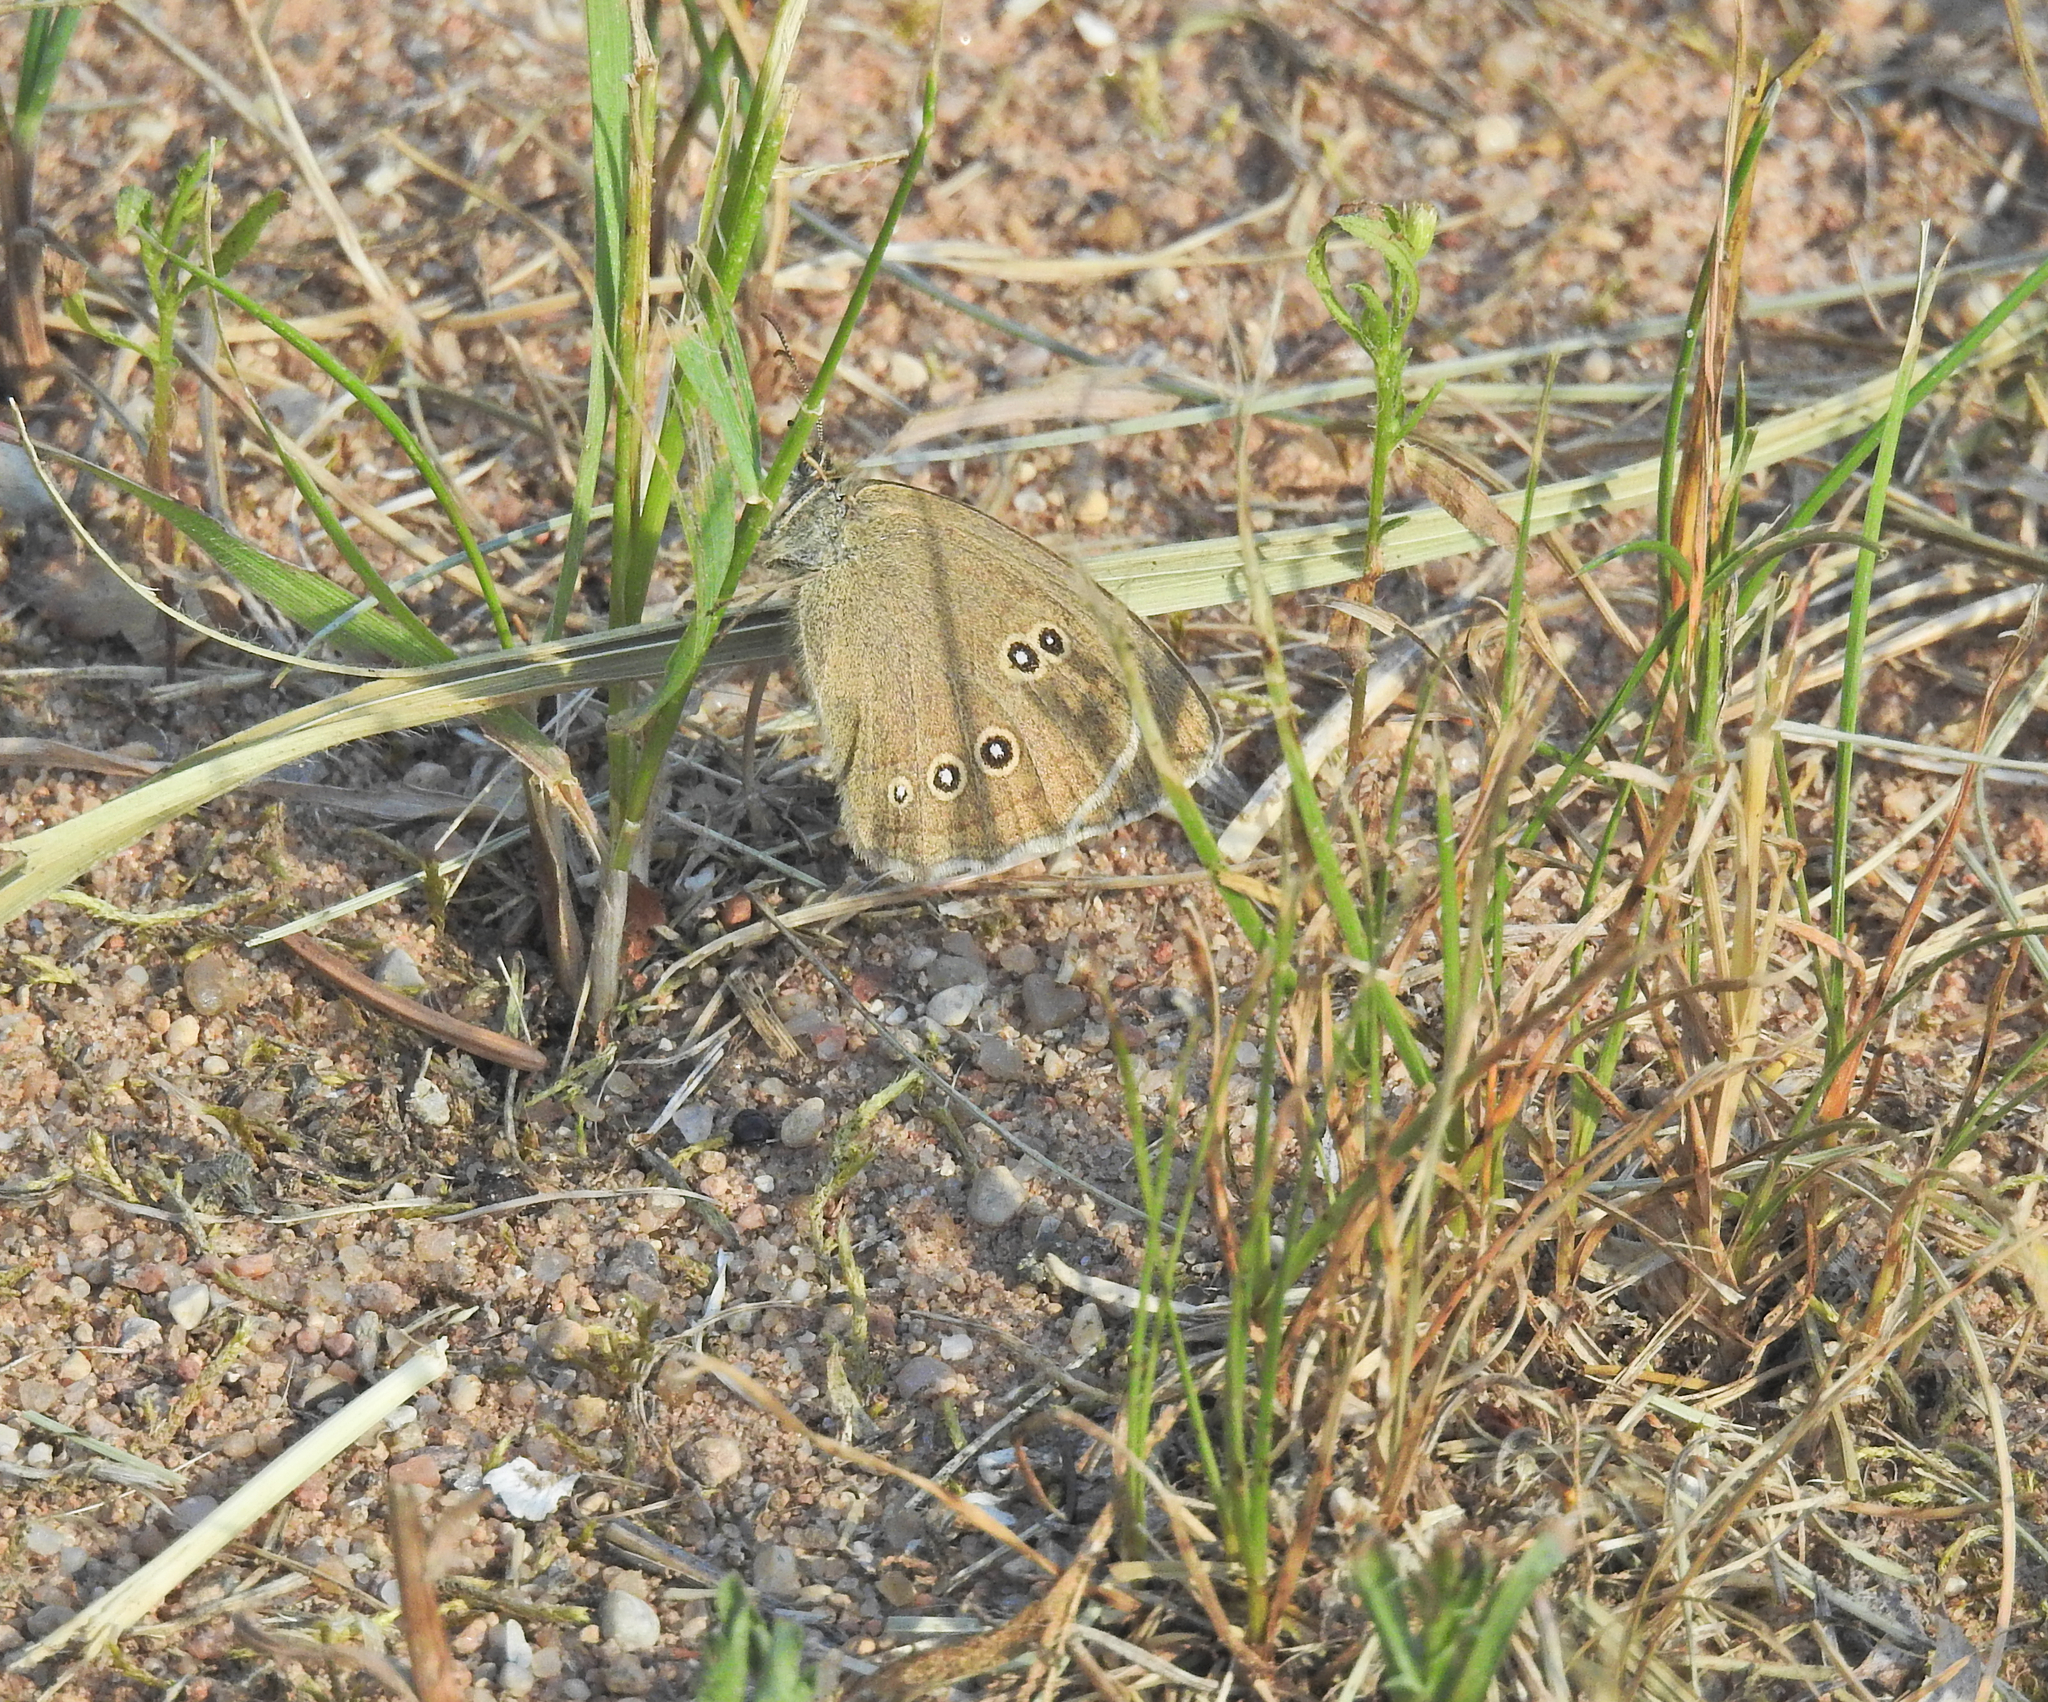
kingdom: Animalia
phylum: Arthropoda
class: Insecta
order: Lepidoptera
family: Nymphalidae
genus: Aphantopus
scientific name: Aphantopus hyperantus
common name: Ringlet
